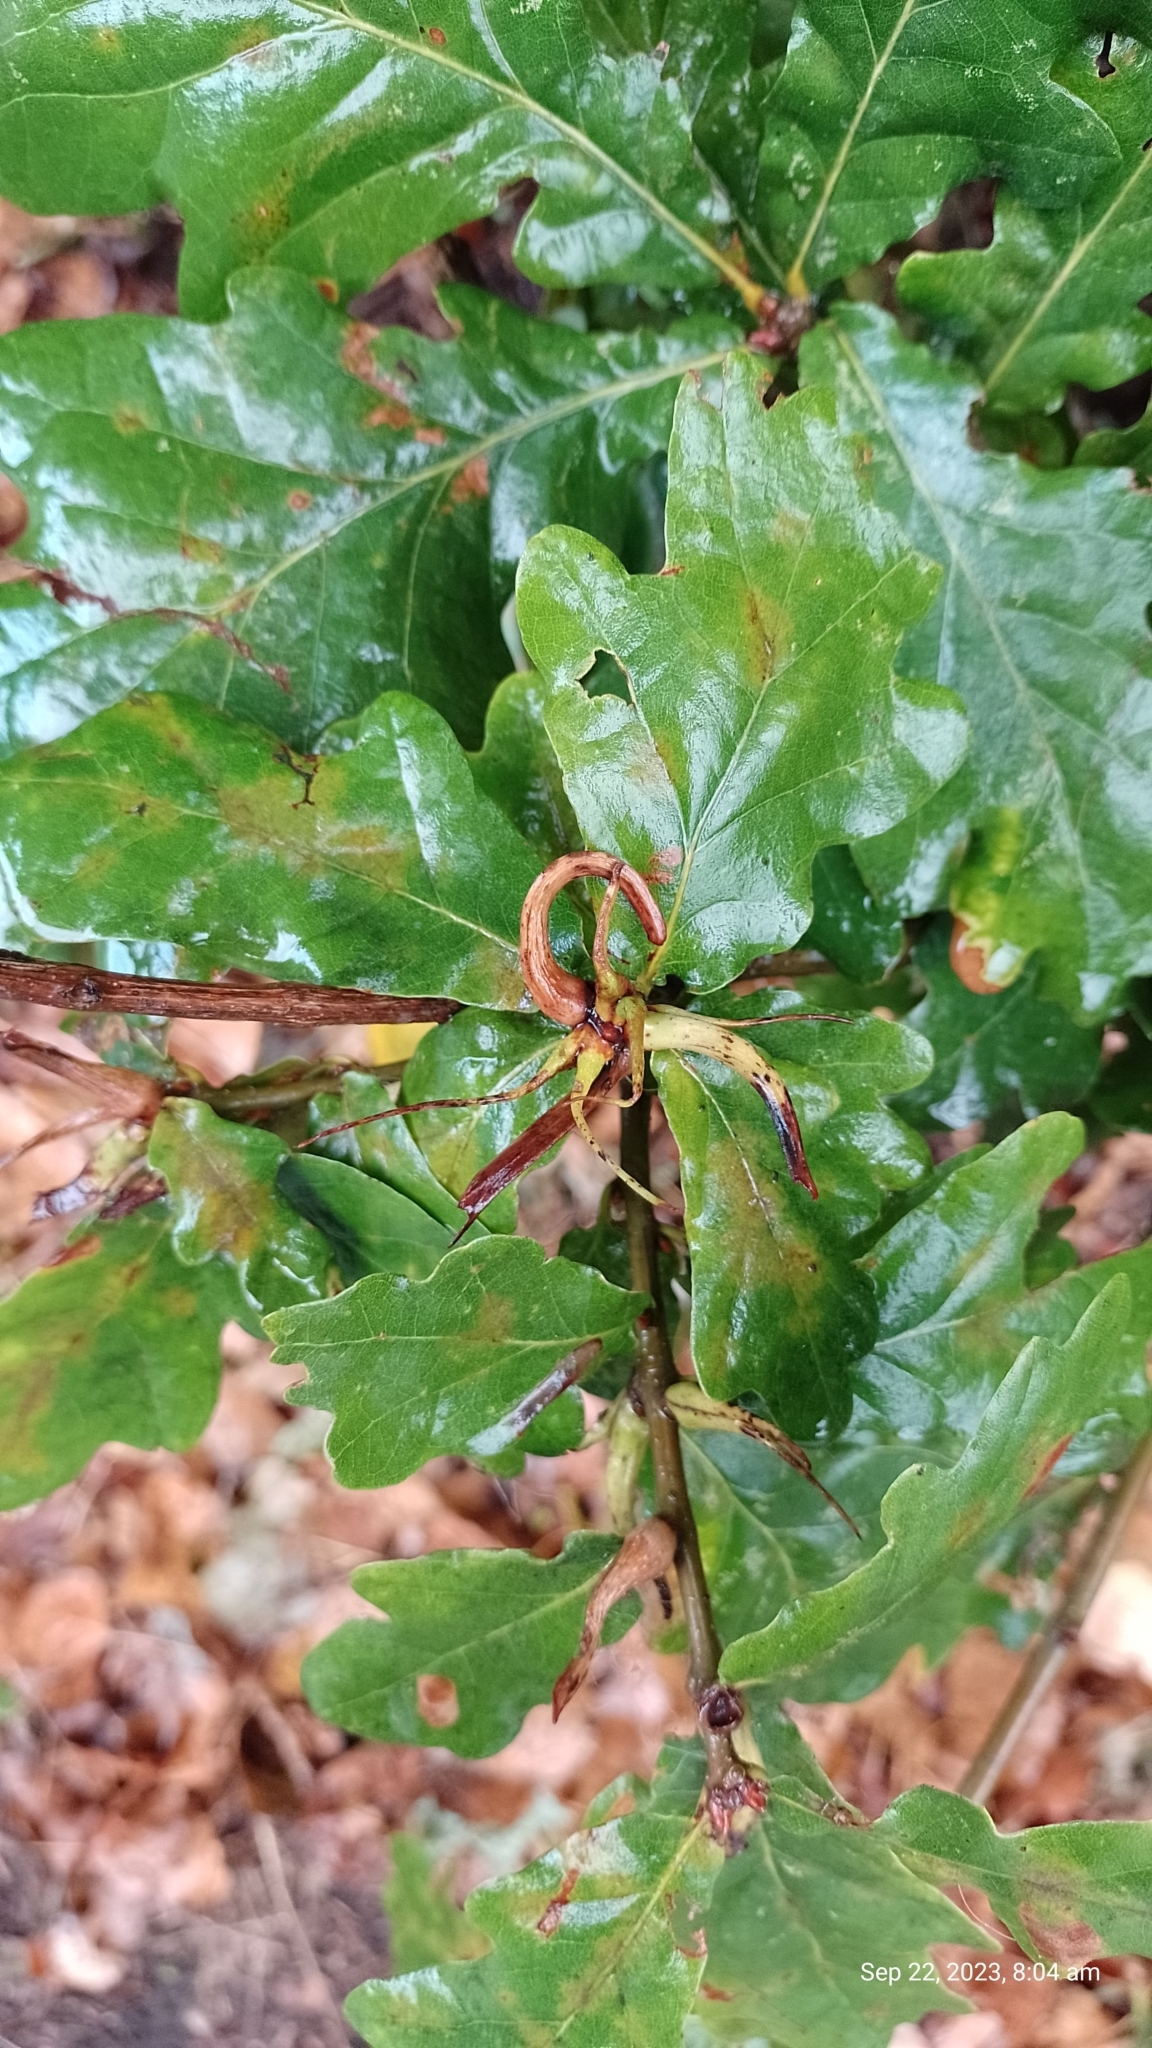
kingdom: Animalia
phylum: Arthropoda
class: Insecta
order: Hymenoptera
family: Cynipidae
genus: Andricus
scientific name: Andricus aries
